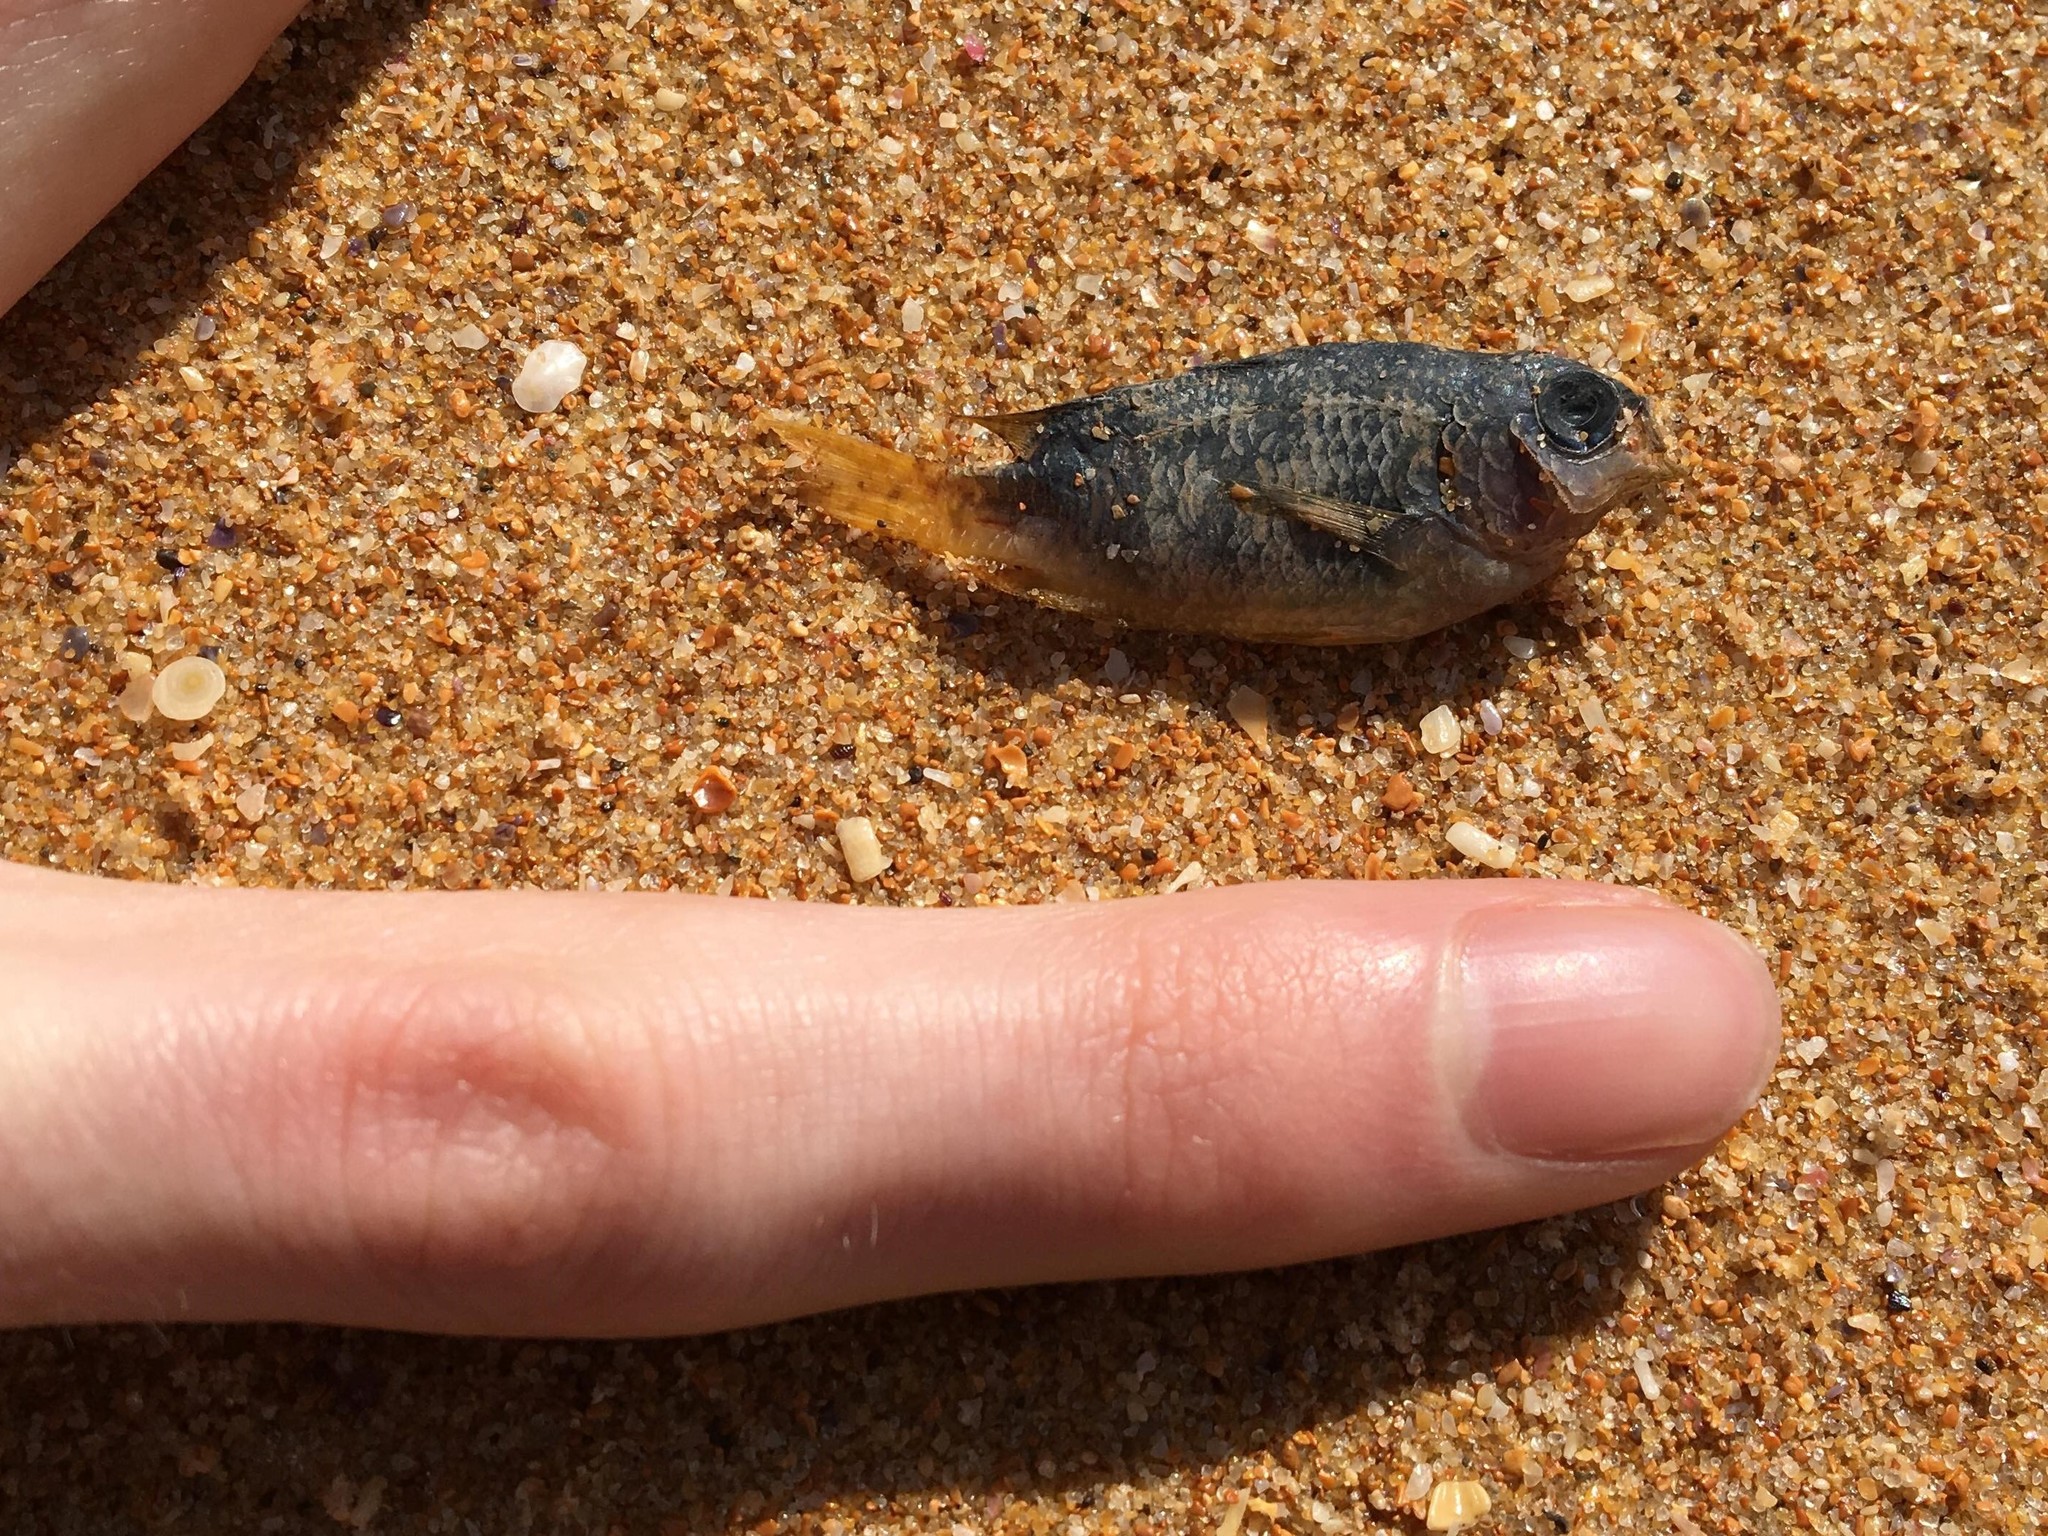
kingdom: Animalia
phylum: Chordata
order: Perciformes
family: Pomacentridae
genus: Pomacentrus
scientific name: Pomacentrus coelestis
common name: Neon damsel
